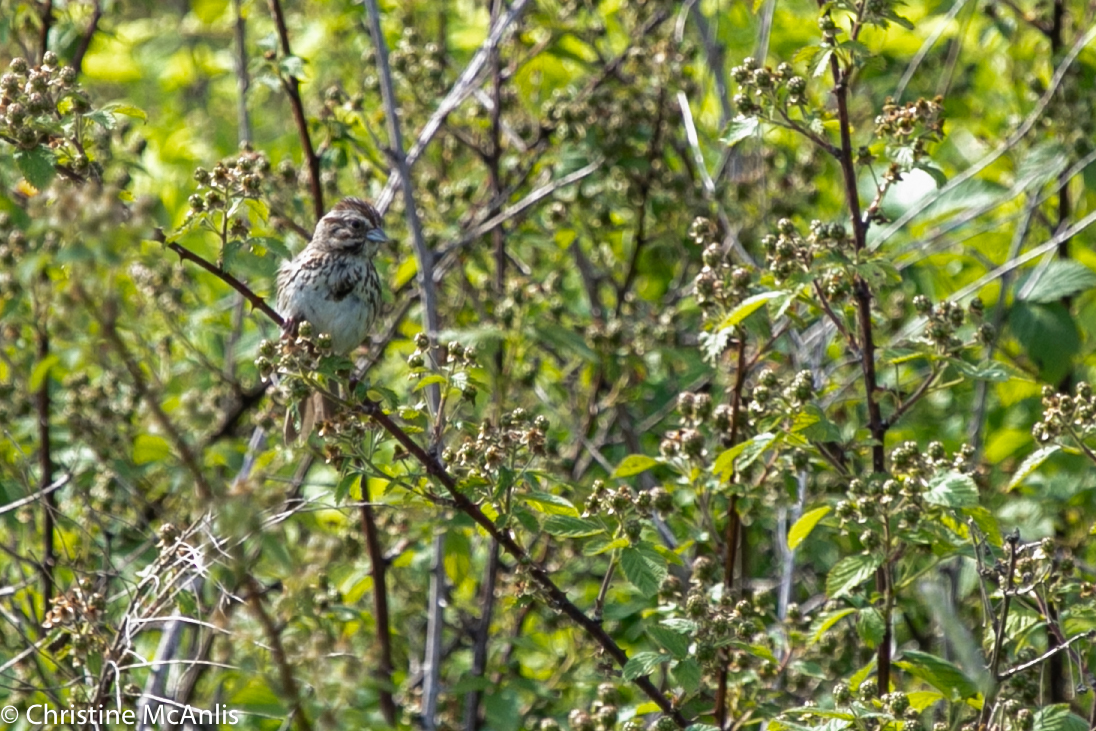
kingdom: Animalia
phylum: Chordata
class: Aves
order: Passeriformes
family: Passerellidae
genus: Melospiza
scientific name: Melospiza melodia
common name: Song sparrow
